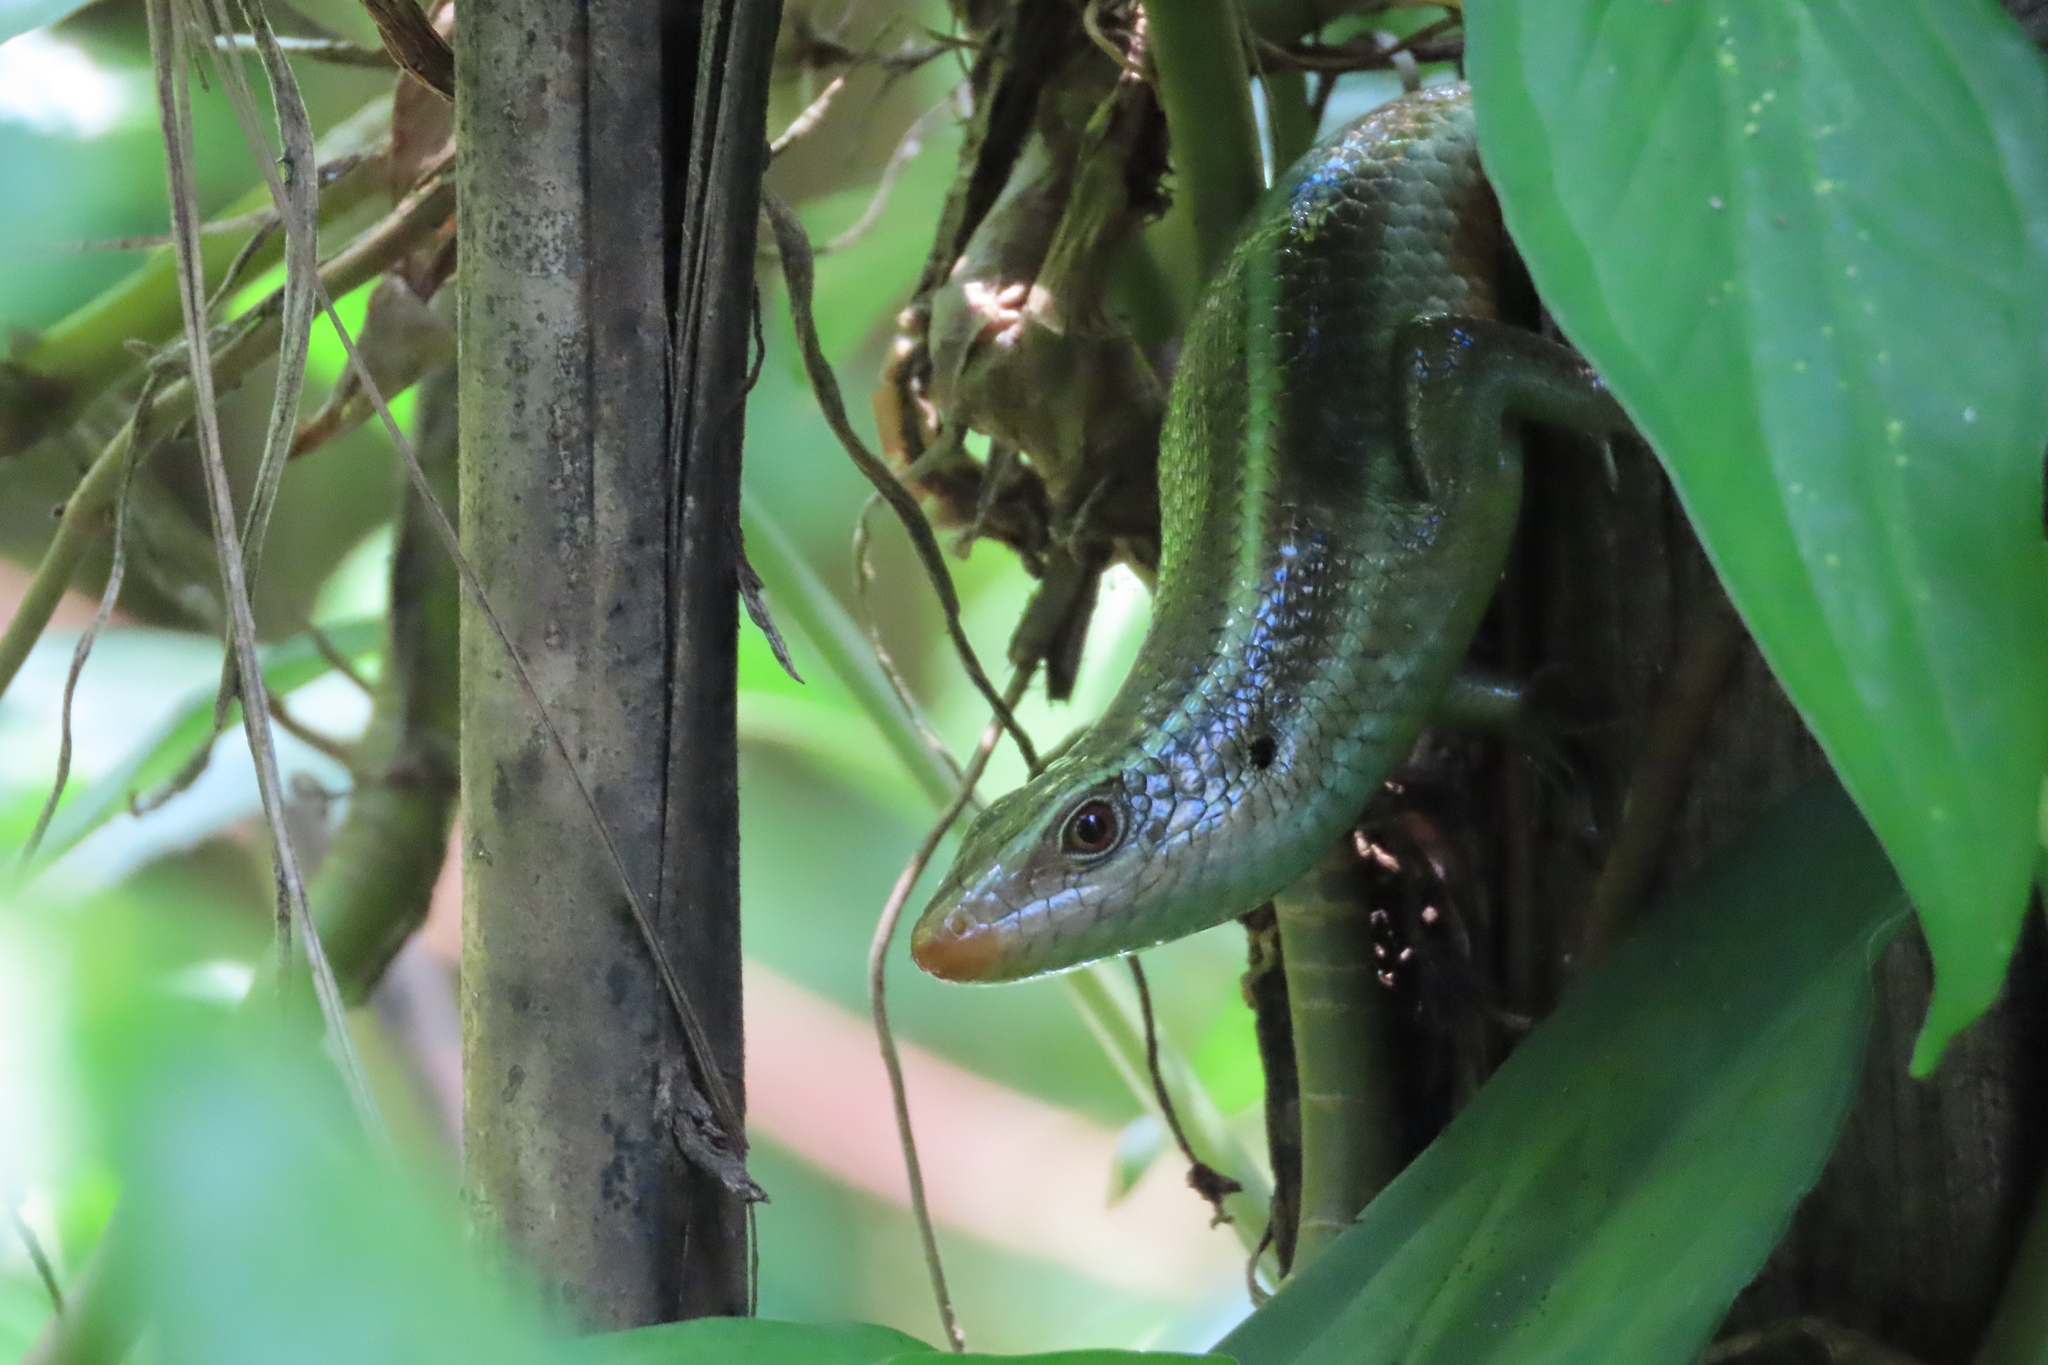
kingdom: Animalia
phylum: Chordata
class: Squamata
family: Scincidae
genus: Eutropis
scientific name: Eutropis carinata
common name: Keeled indian mabuya
